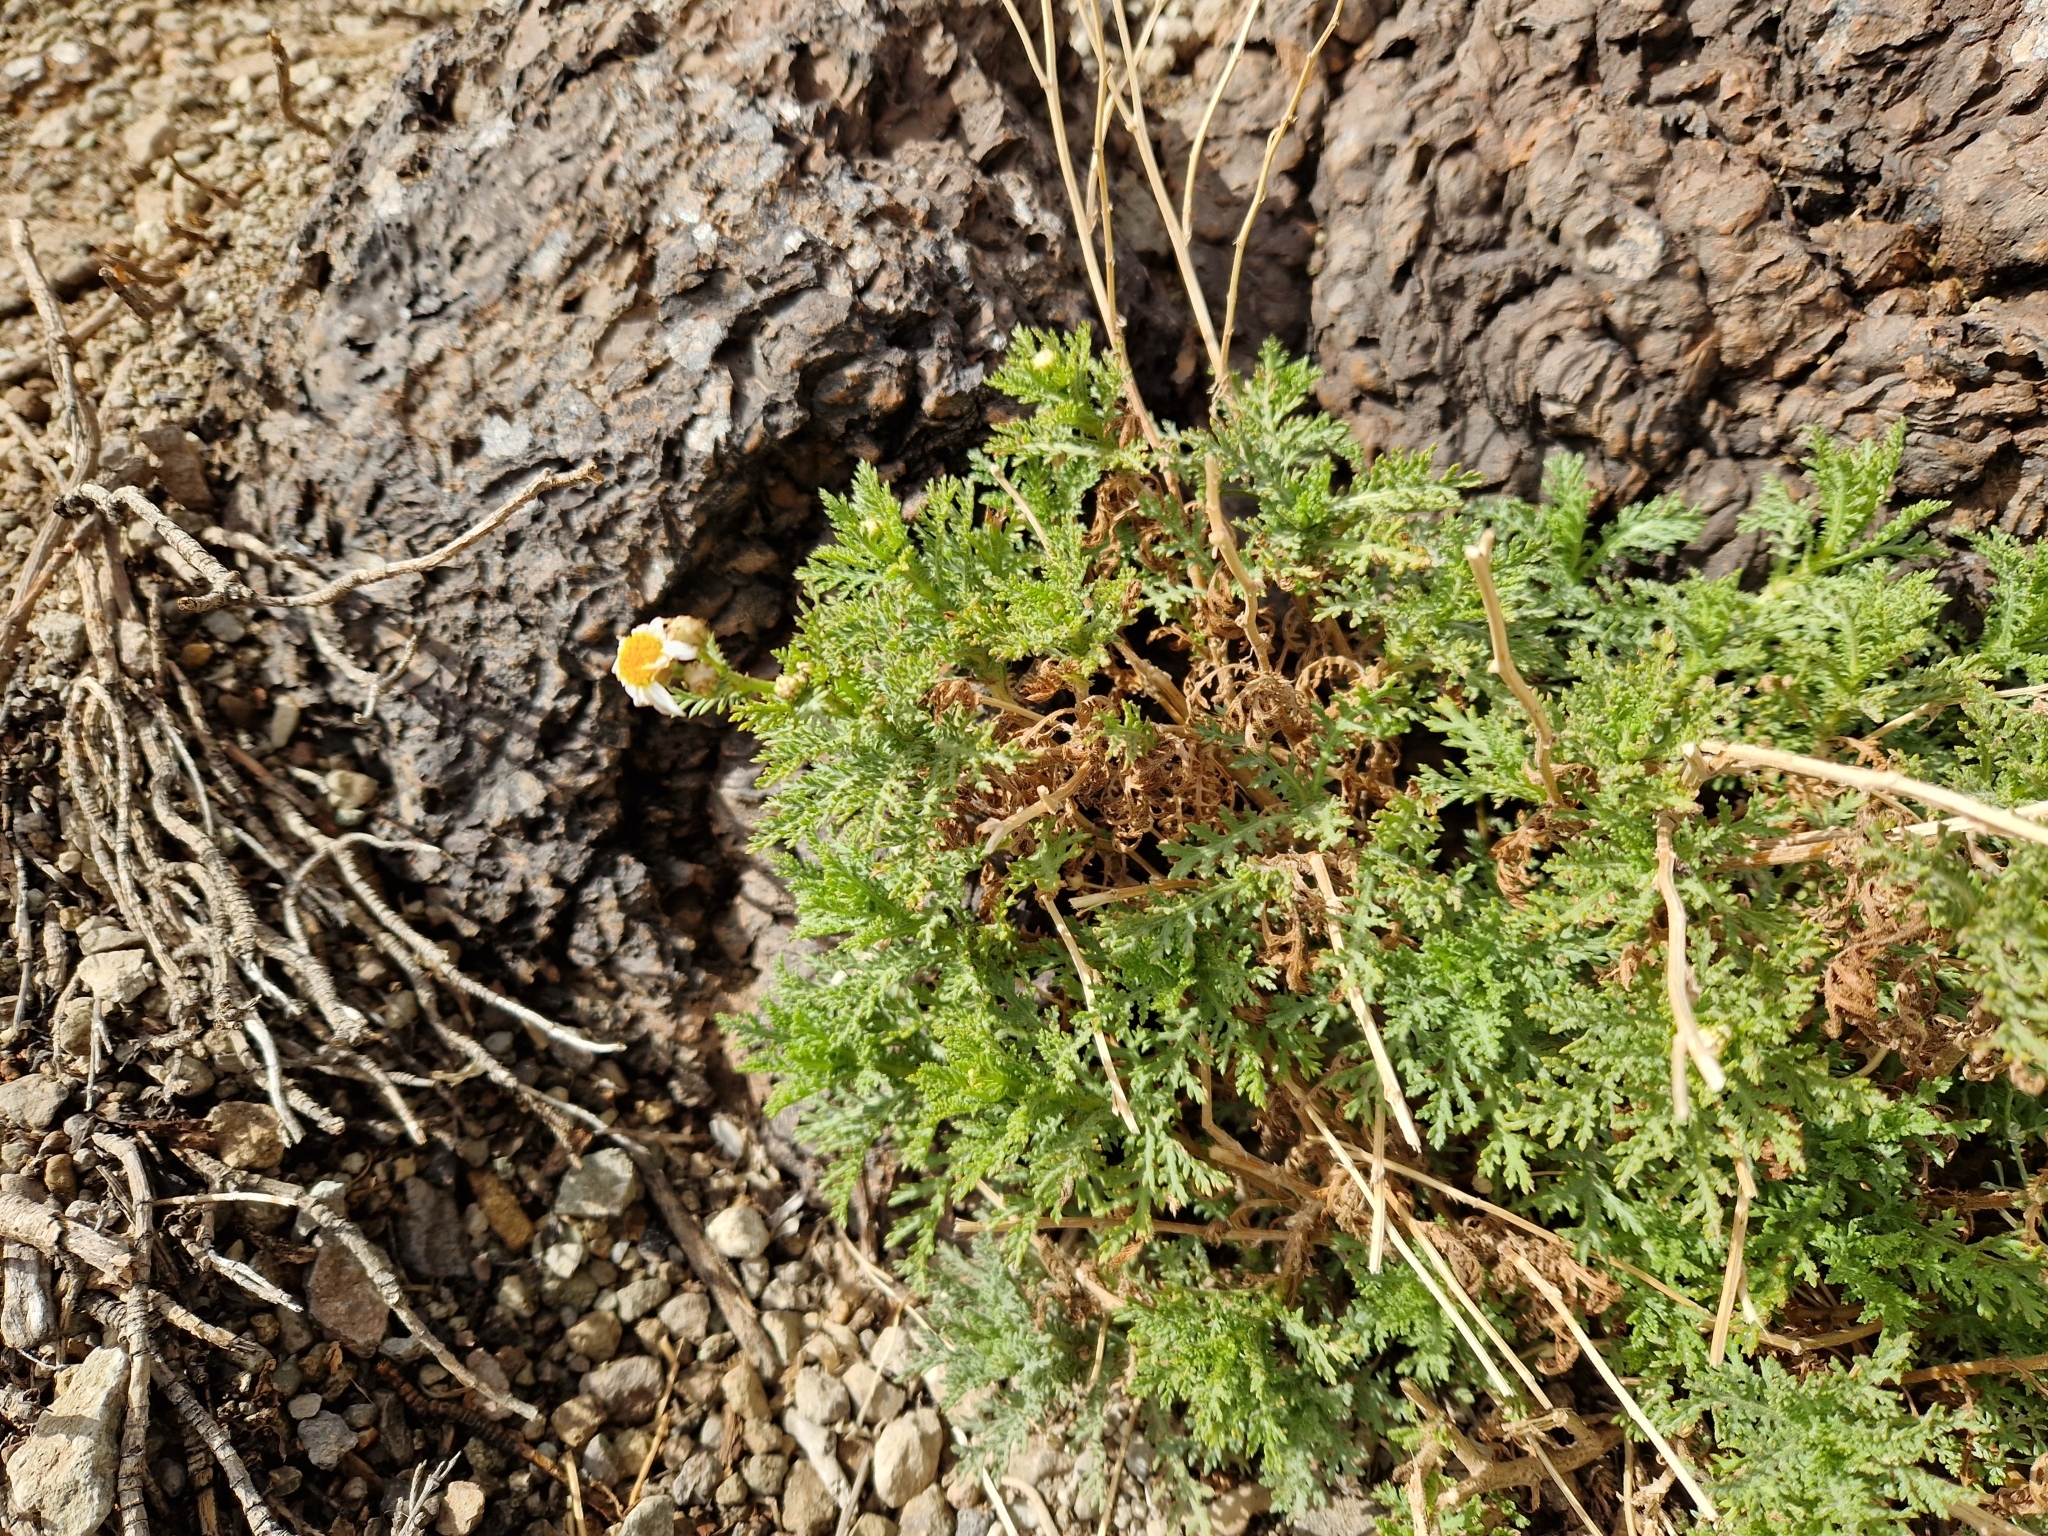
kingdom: Plantae
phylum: Tracheophyta
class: Magnoliopsida
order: Asterales
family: Asteraceae
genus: Argyranthemum
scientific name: Argyranthemum tenerifae
